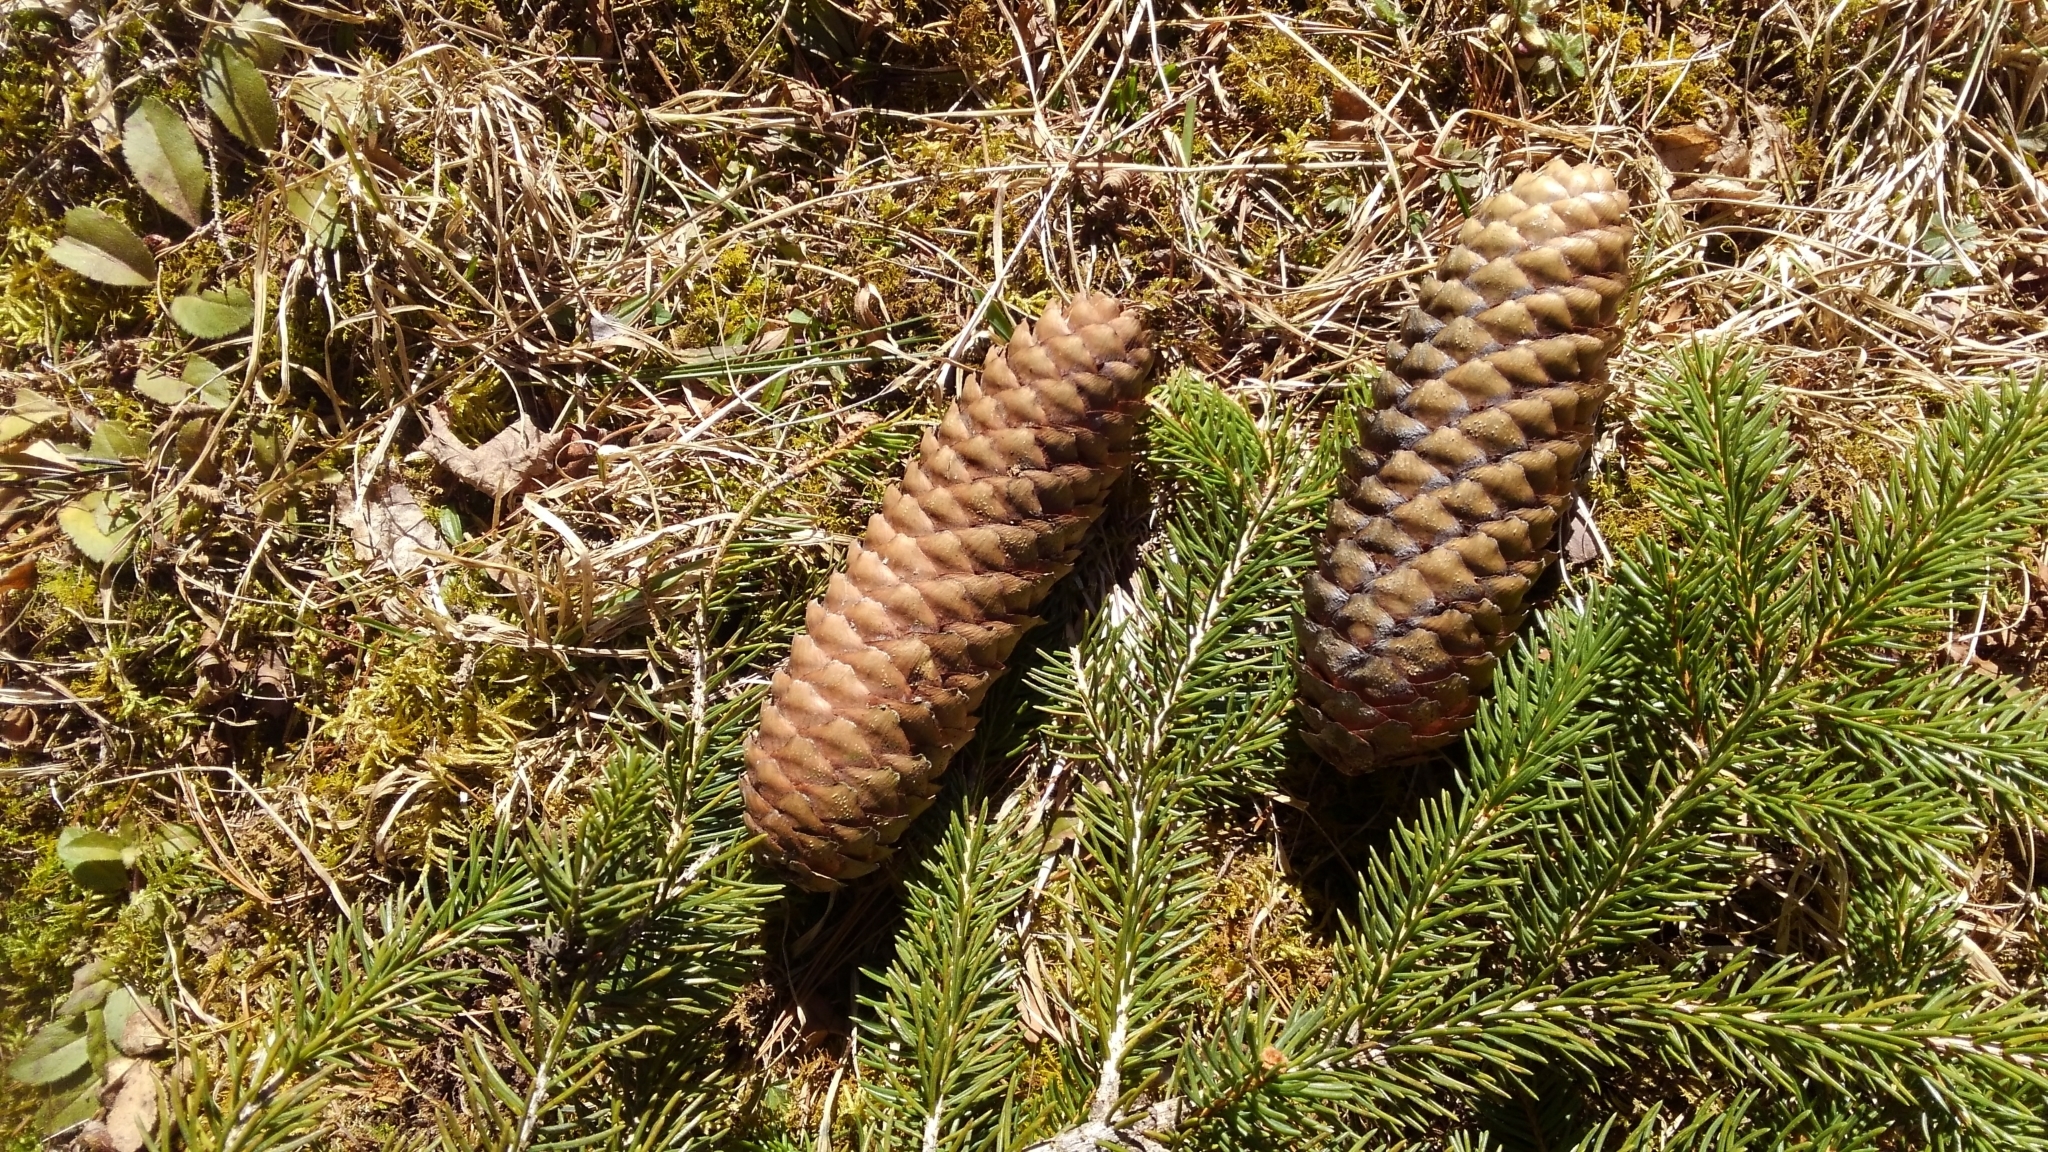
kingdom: Plantae
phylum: Tracheophyta
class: Pinopsida
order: Pinales
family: Pinaceae
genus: Picea
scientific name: Picea abies
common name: Norway spruce
